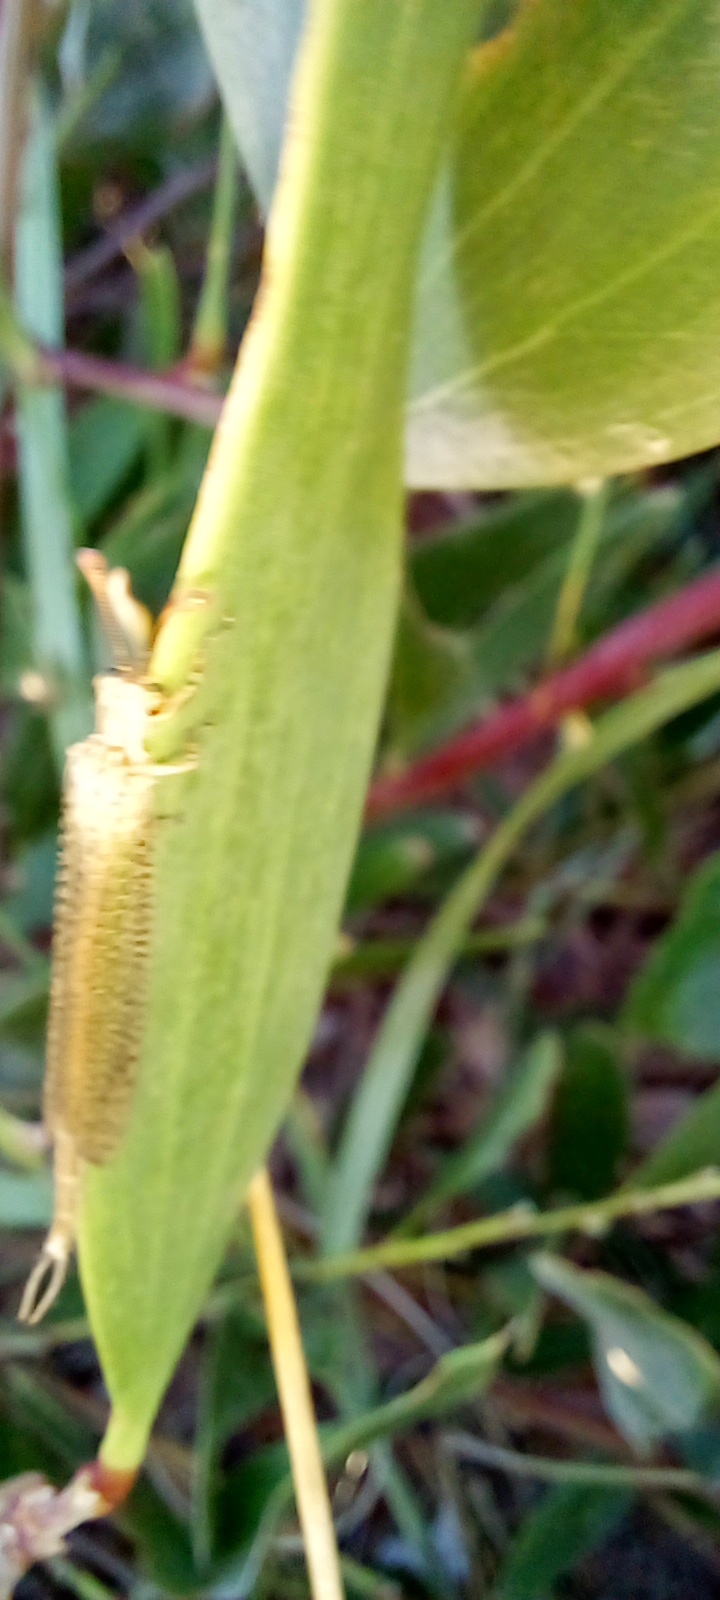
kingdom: Animalia
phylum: Arthropoda
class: Insecta
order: Neuroptera
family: Myrmeleontidae
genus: Argentoleon
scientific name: Argentoleon irrigatus
